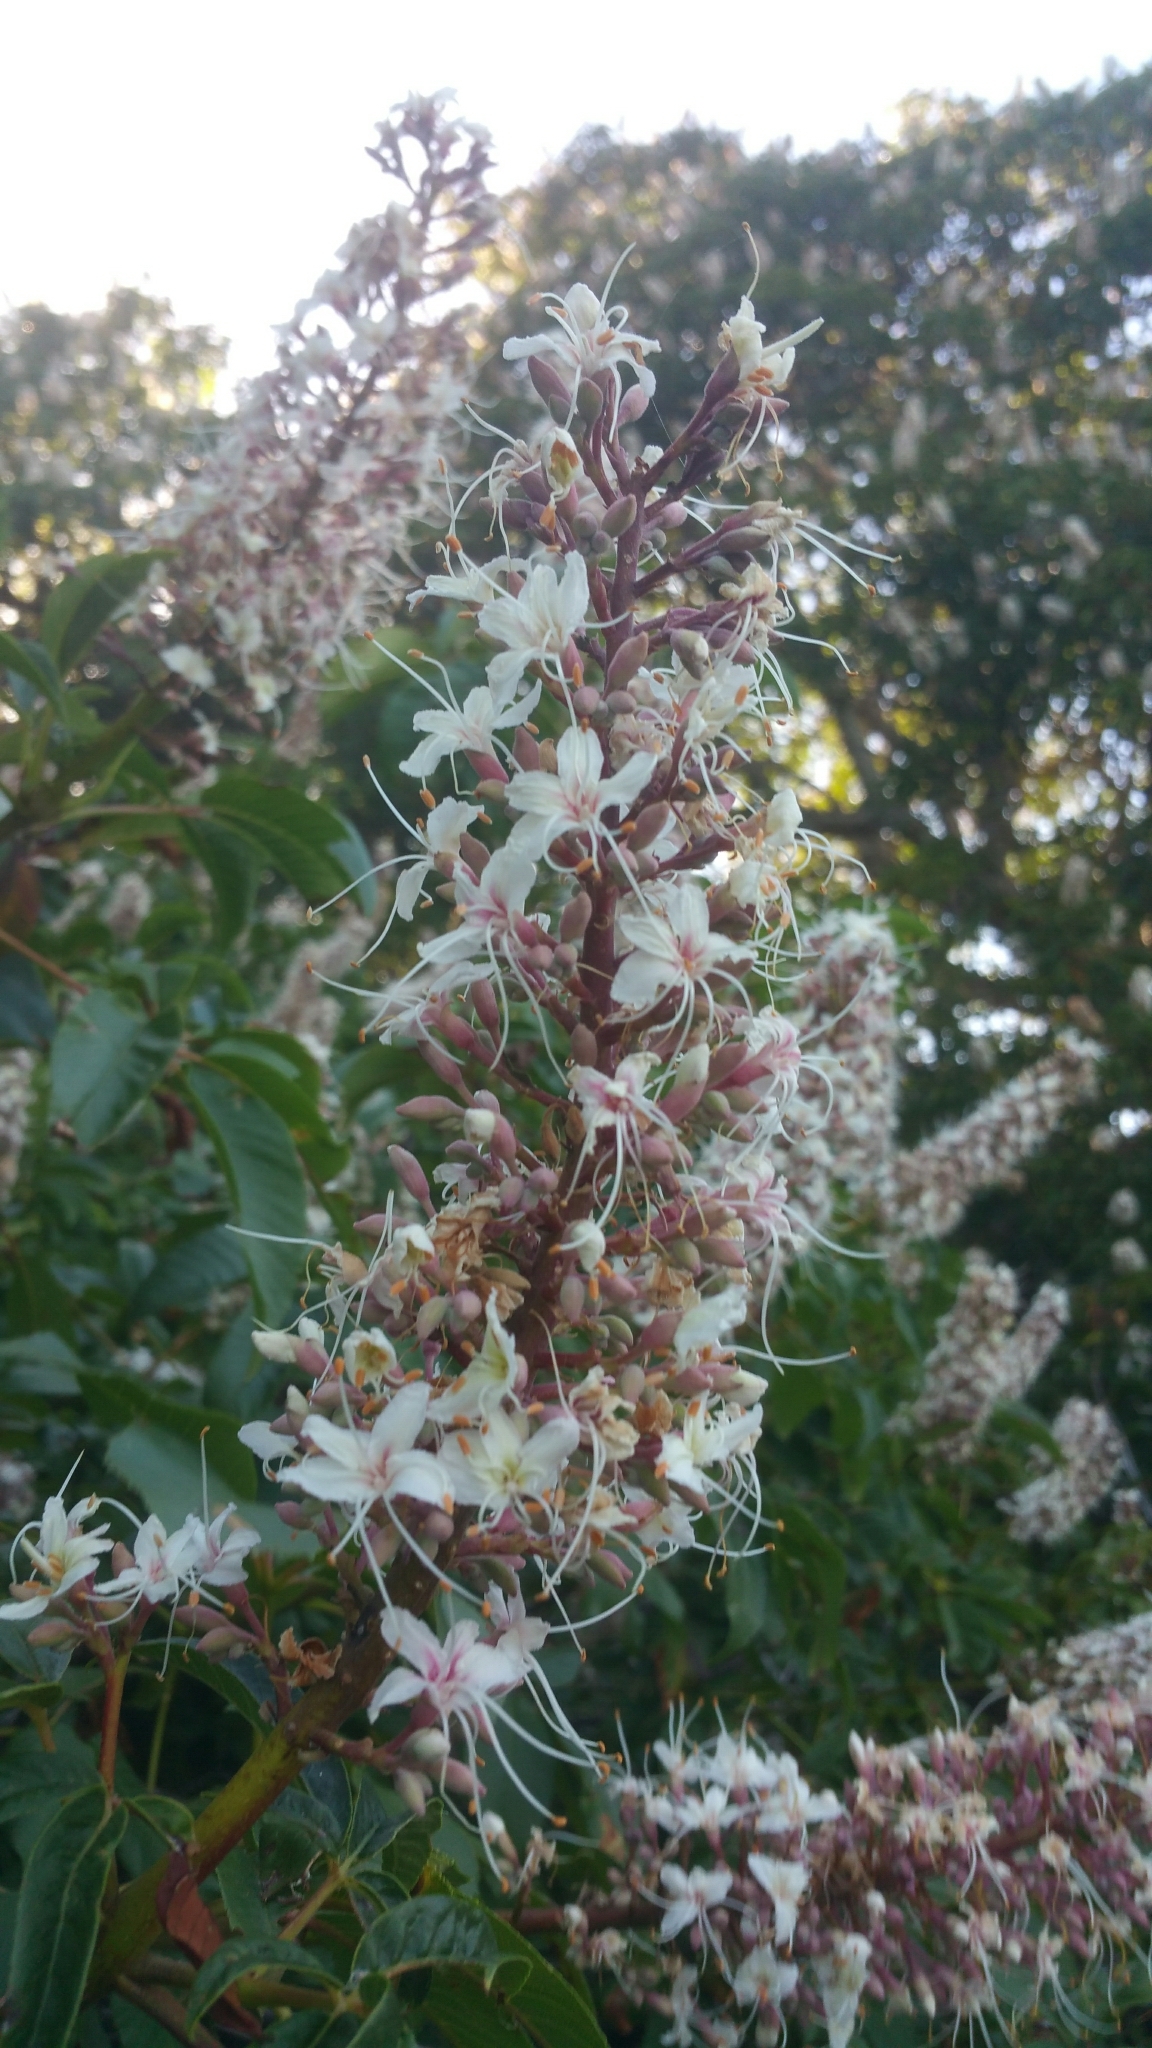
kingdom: Plantae
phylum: Tracheophyta
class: Magnoliopsida
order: Sapindales
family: Sapindaceae
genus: Aesculus
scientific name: Aesculus californica
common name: California buckeye
